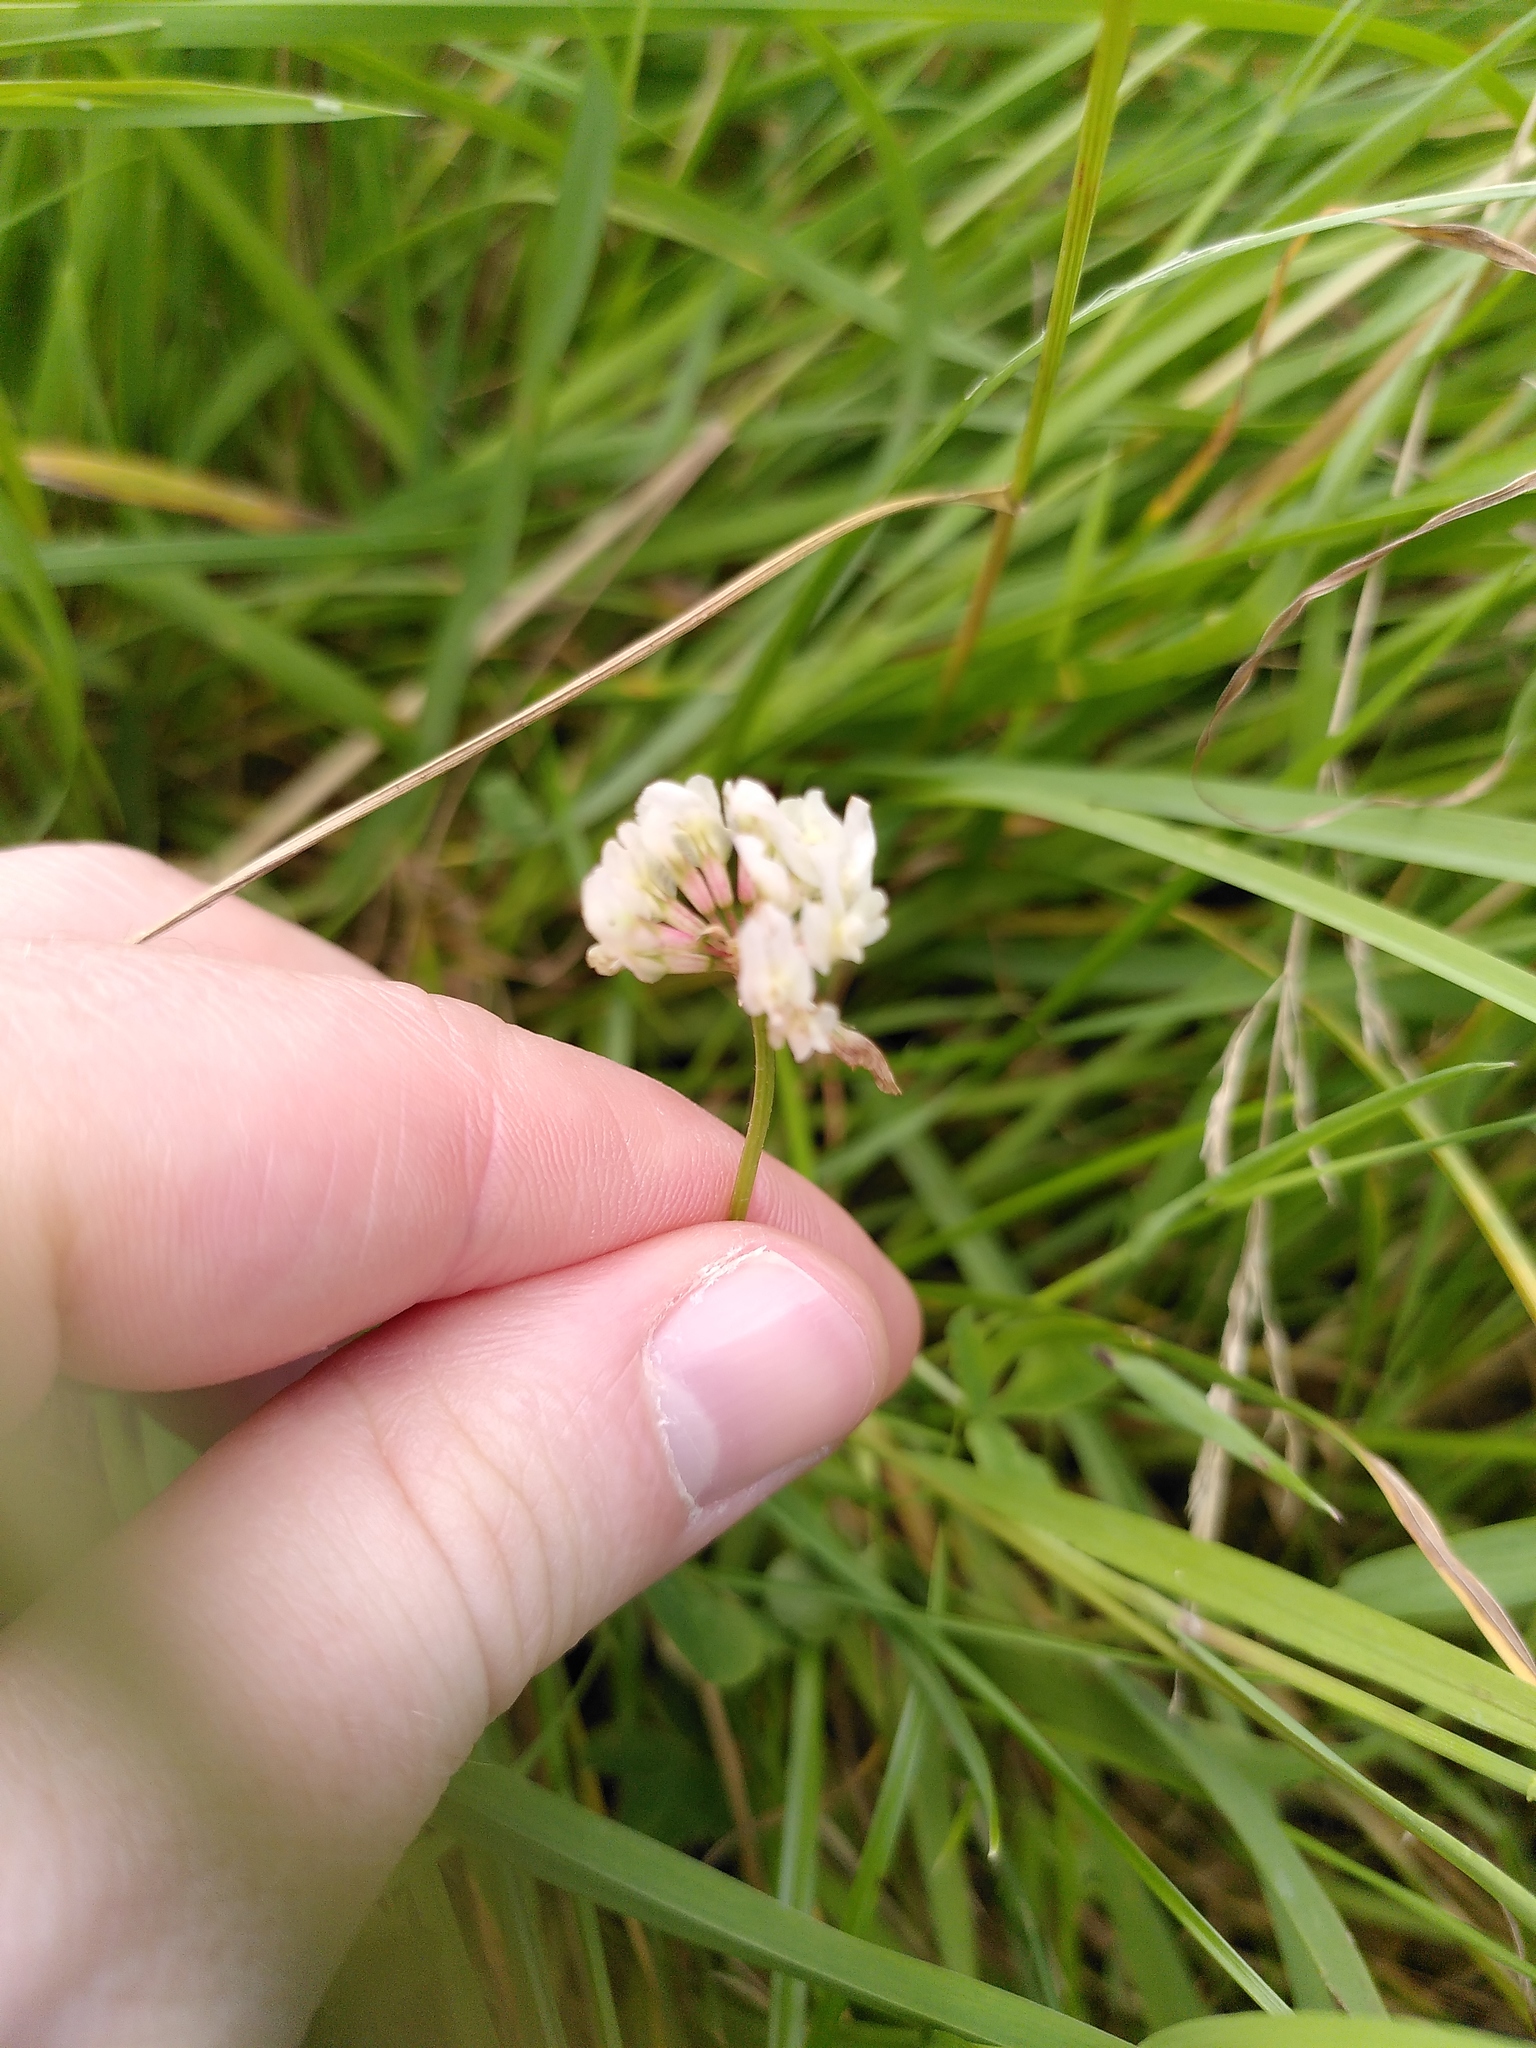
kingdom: Plantae
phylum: Tracheophyta
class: Magnoliopsida
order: Fabales
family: Fabaceae
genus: Trifolium
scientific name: Trifolium repens
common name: White clover
